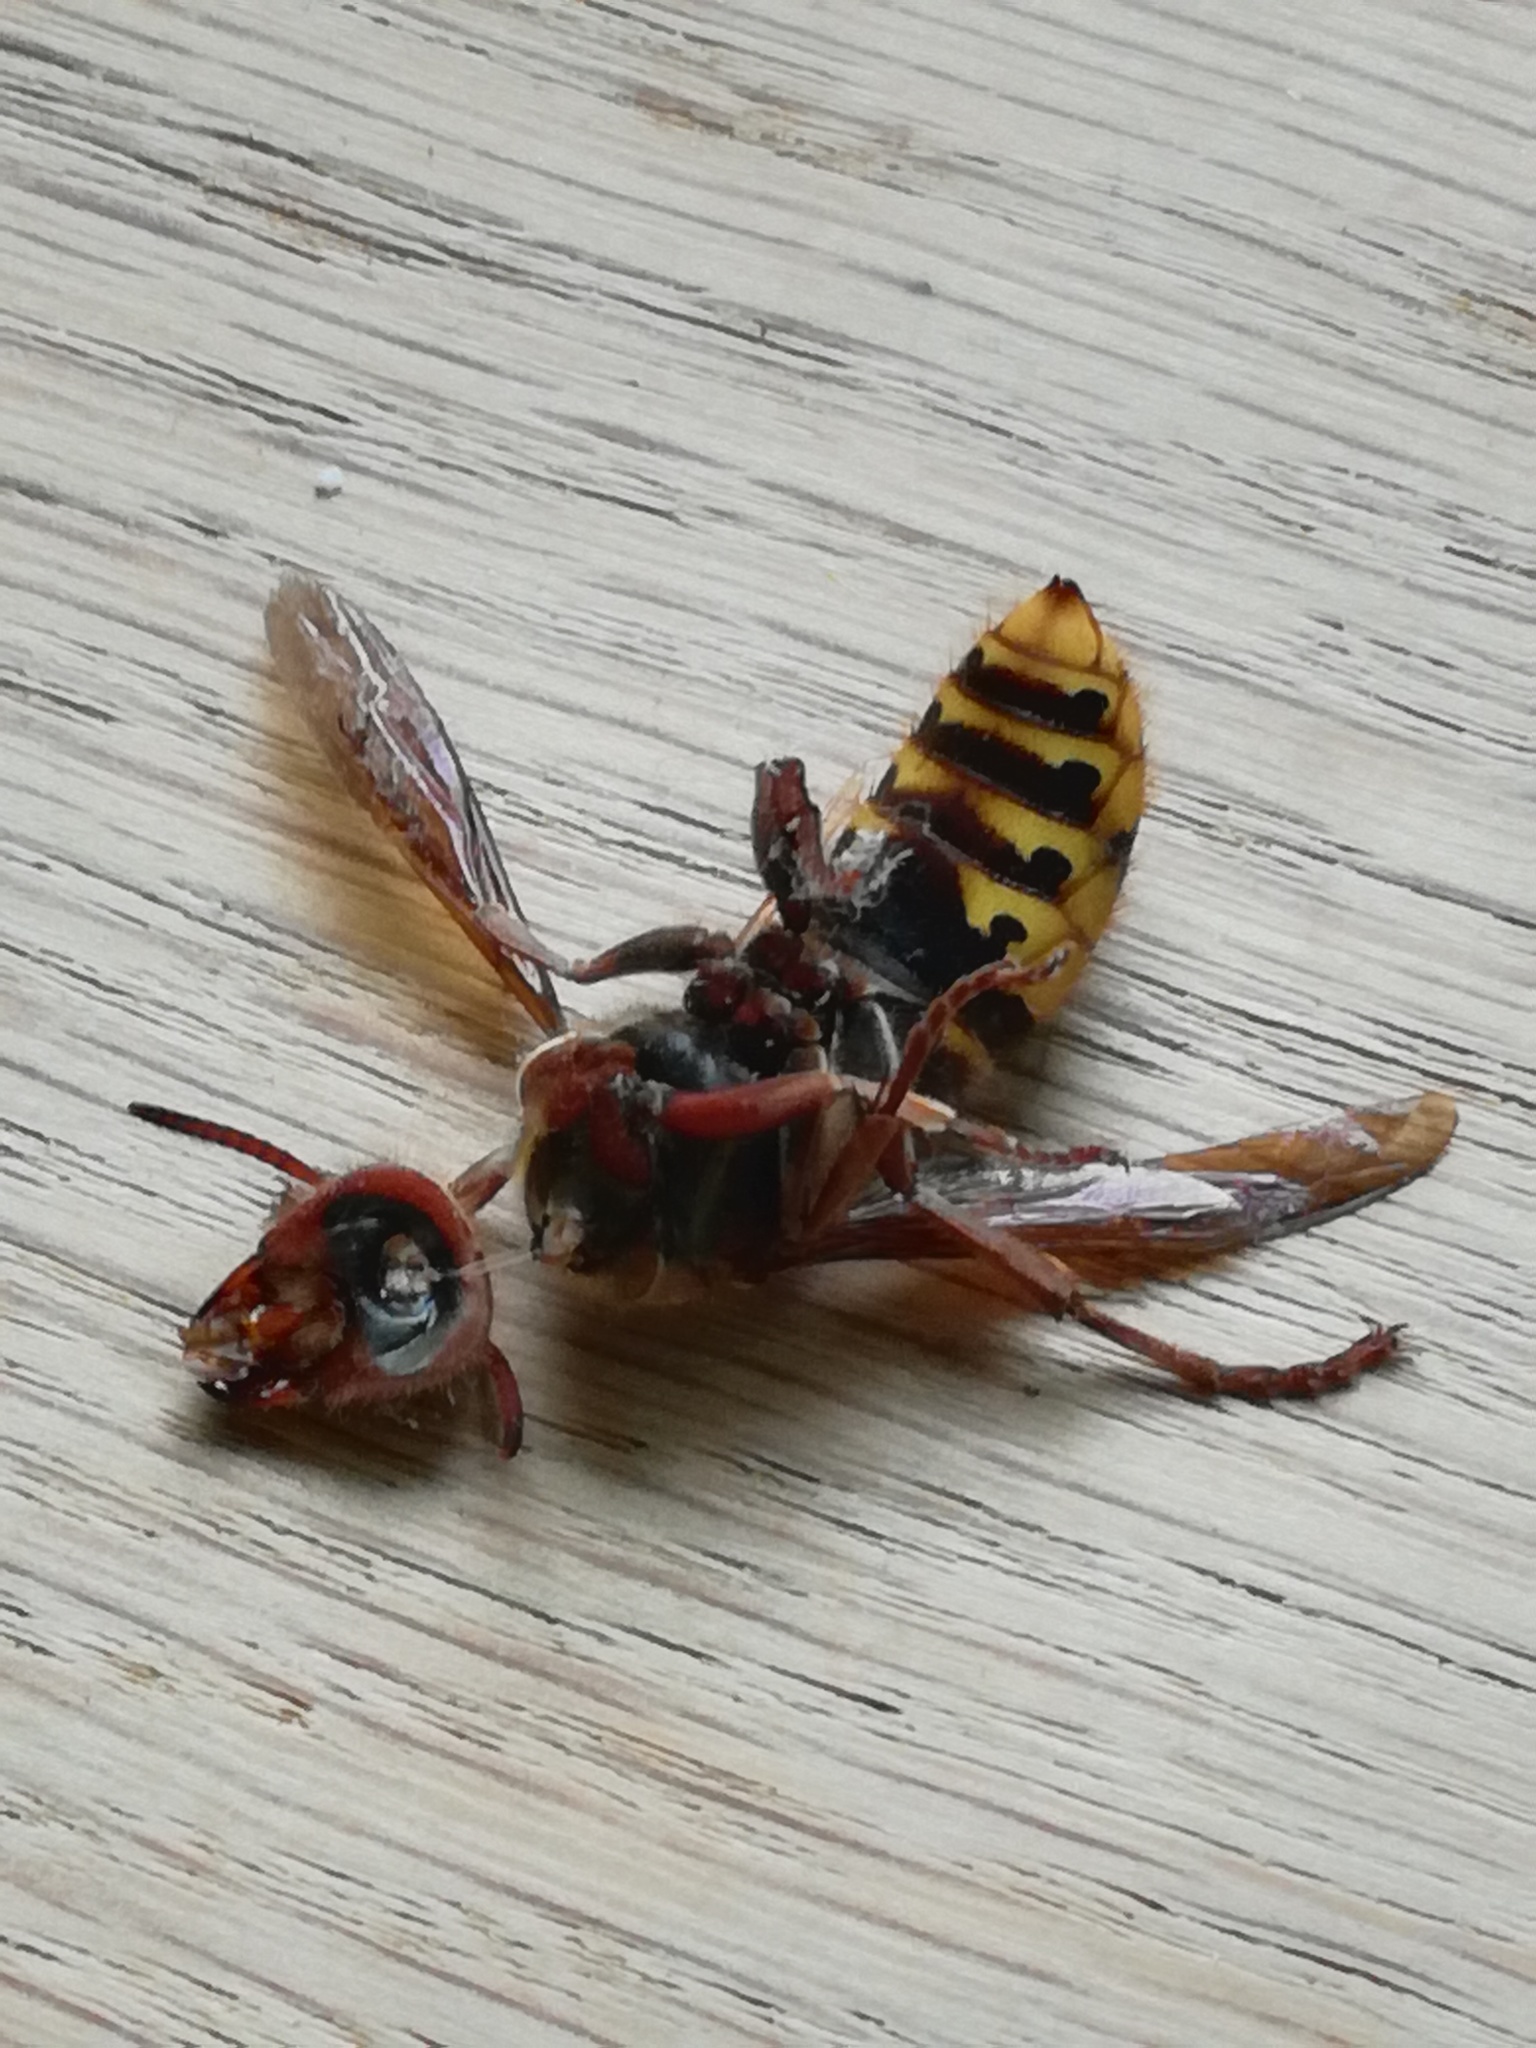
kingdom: Animalia
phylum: Arthropoda
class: Insecta
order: Hymenoptera
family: Vespidae
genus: Vespa
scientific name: Vespa crabro
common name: Hornet
